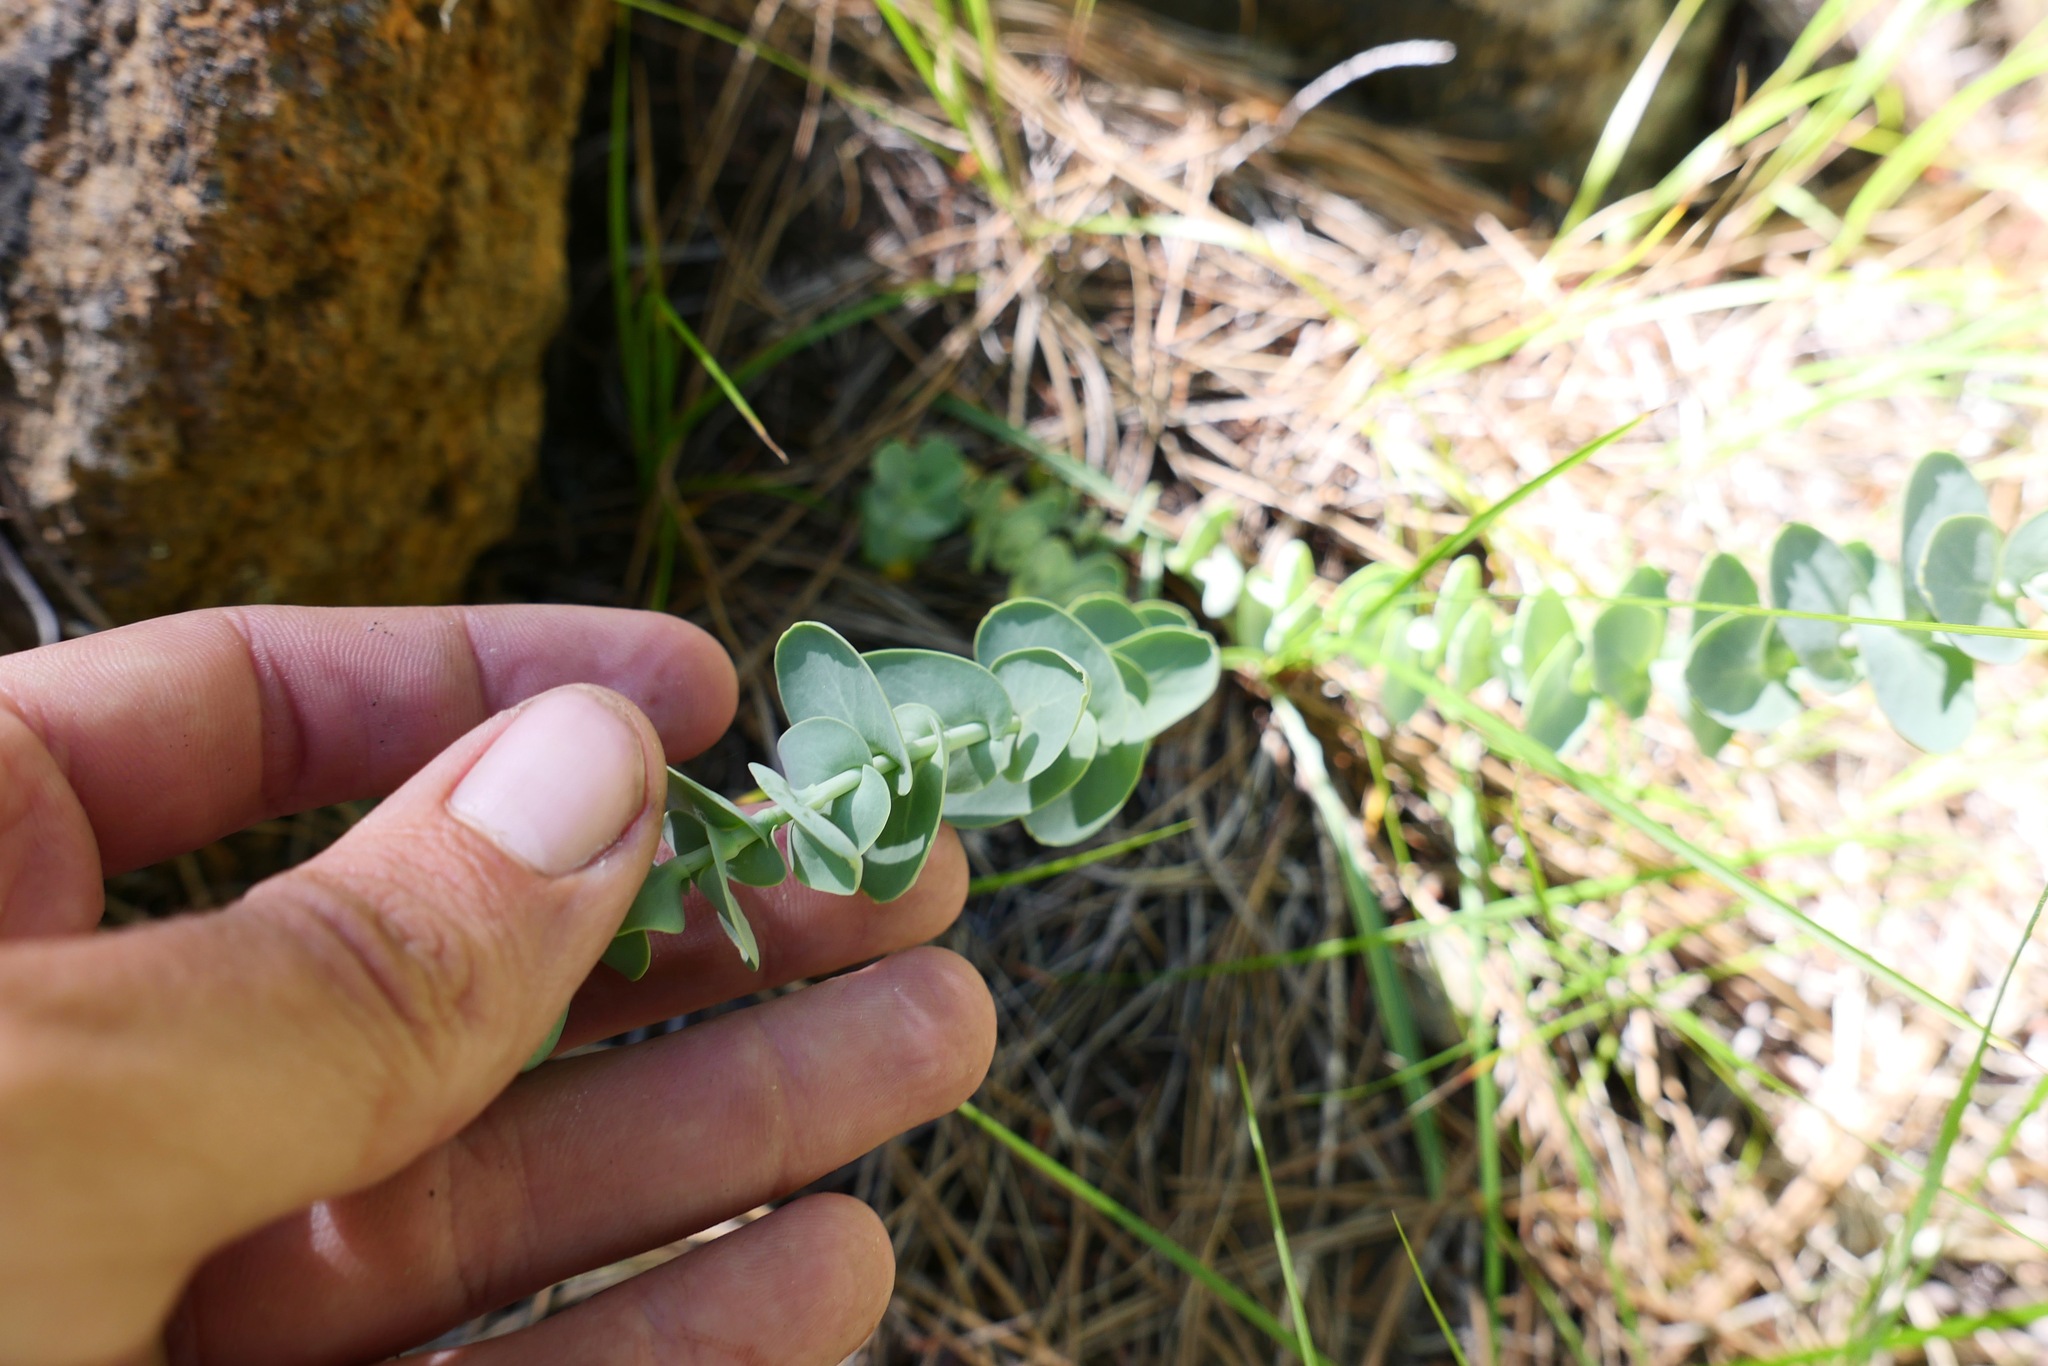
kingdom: Plantae
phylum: Tracheophyta
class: Magnoliopsida
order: Brassicales
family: Brassicaceae
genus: Streptanthus
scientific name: Streptanthus barbatus
